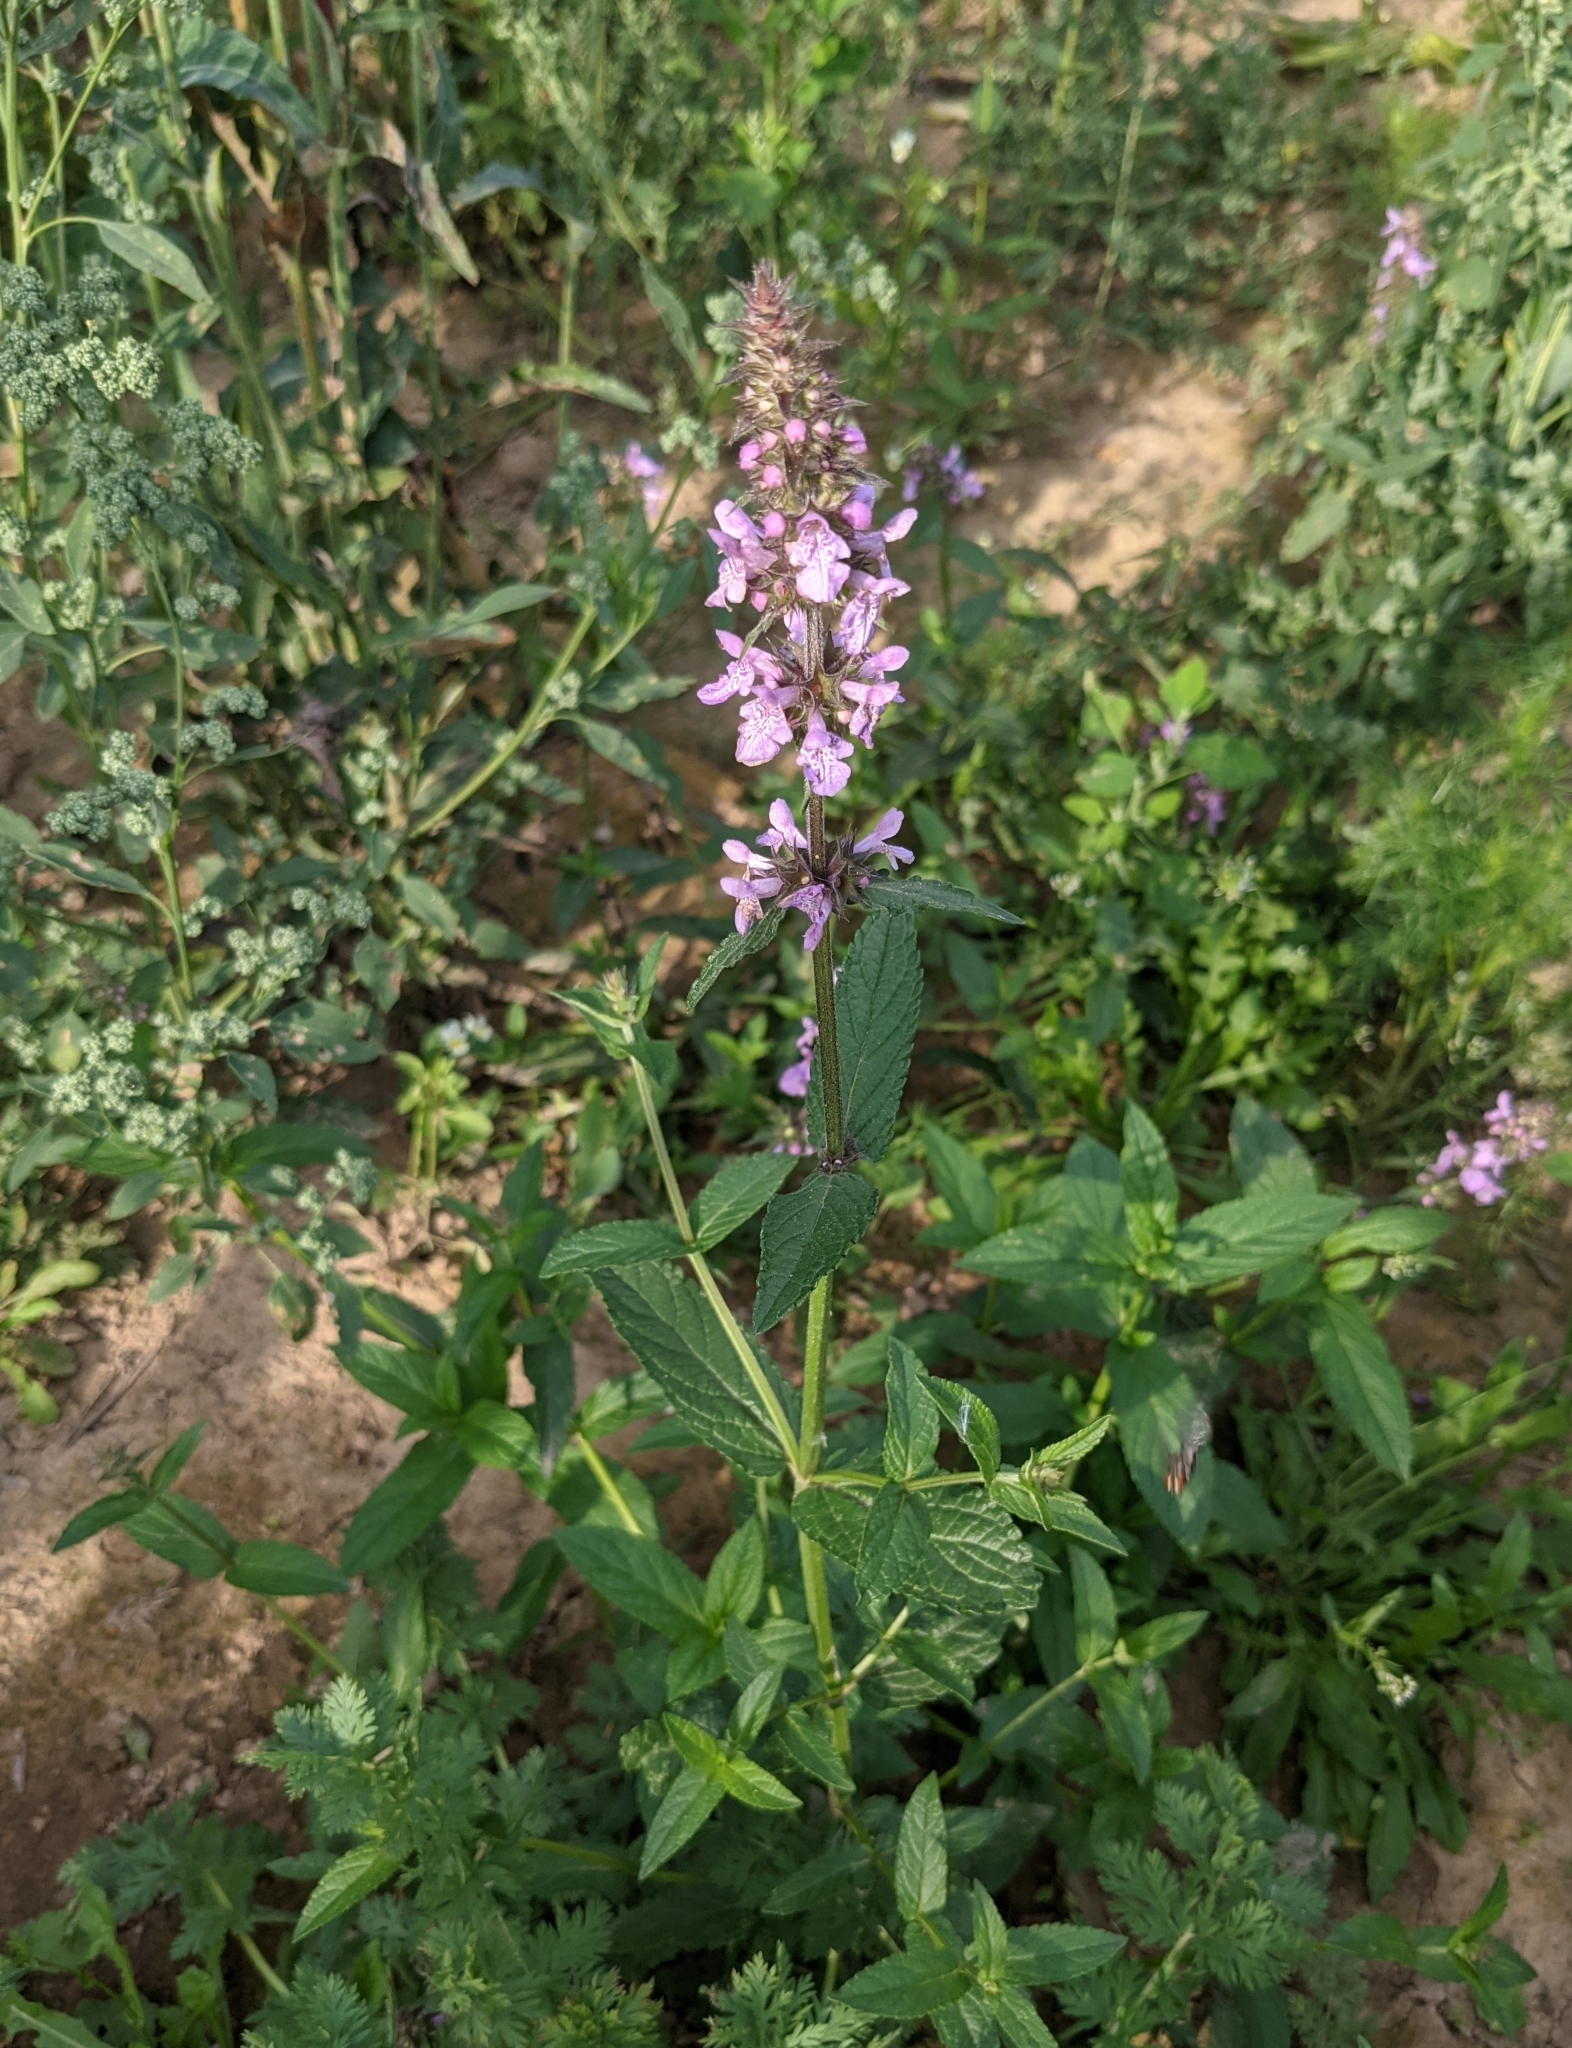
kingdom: Plantae
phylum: Tracheophyta
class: Magnoliopsida
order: Lamiales
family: Lamiaceae
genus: Stachys
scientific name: Stachys palustris
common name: Marsh woundwort
